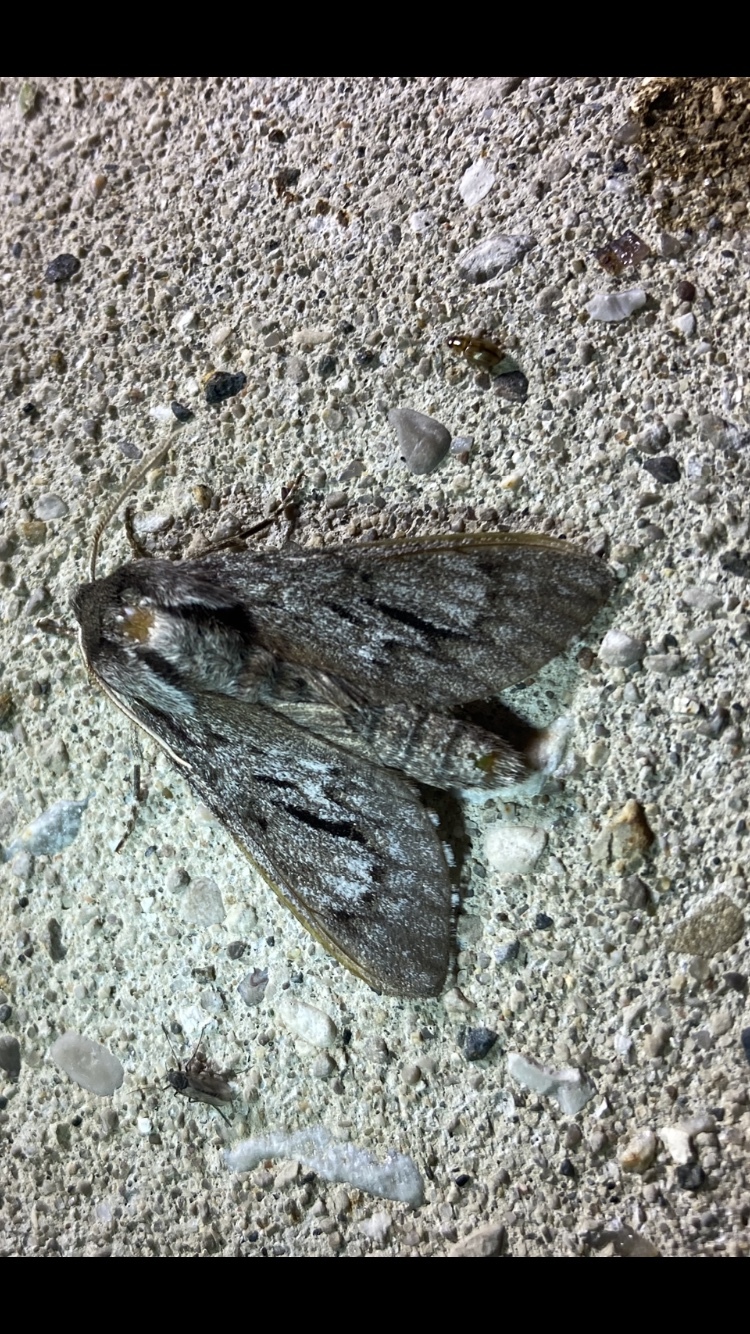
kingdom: Animalia
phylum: Arthropoda
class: Insecta
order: Lepidoptera
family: Sphingidae
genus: Lapara
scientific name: Lapara bombycoides
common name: Northern pine sphinx
